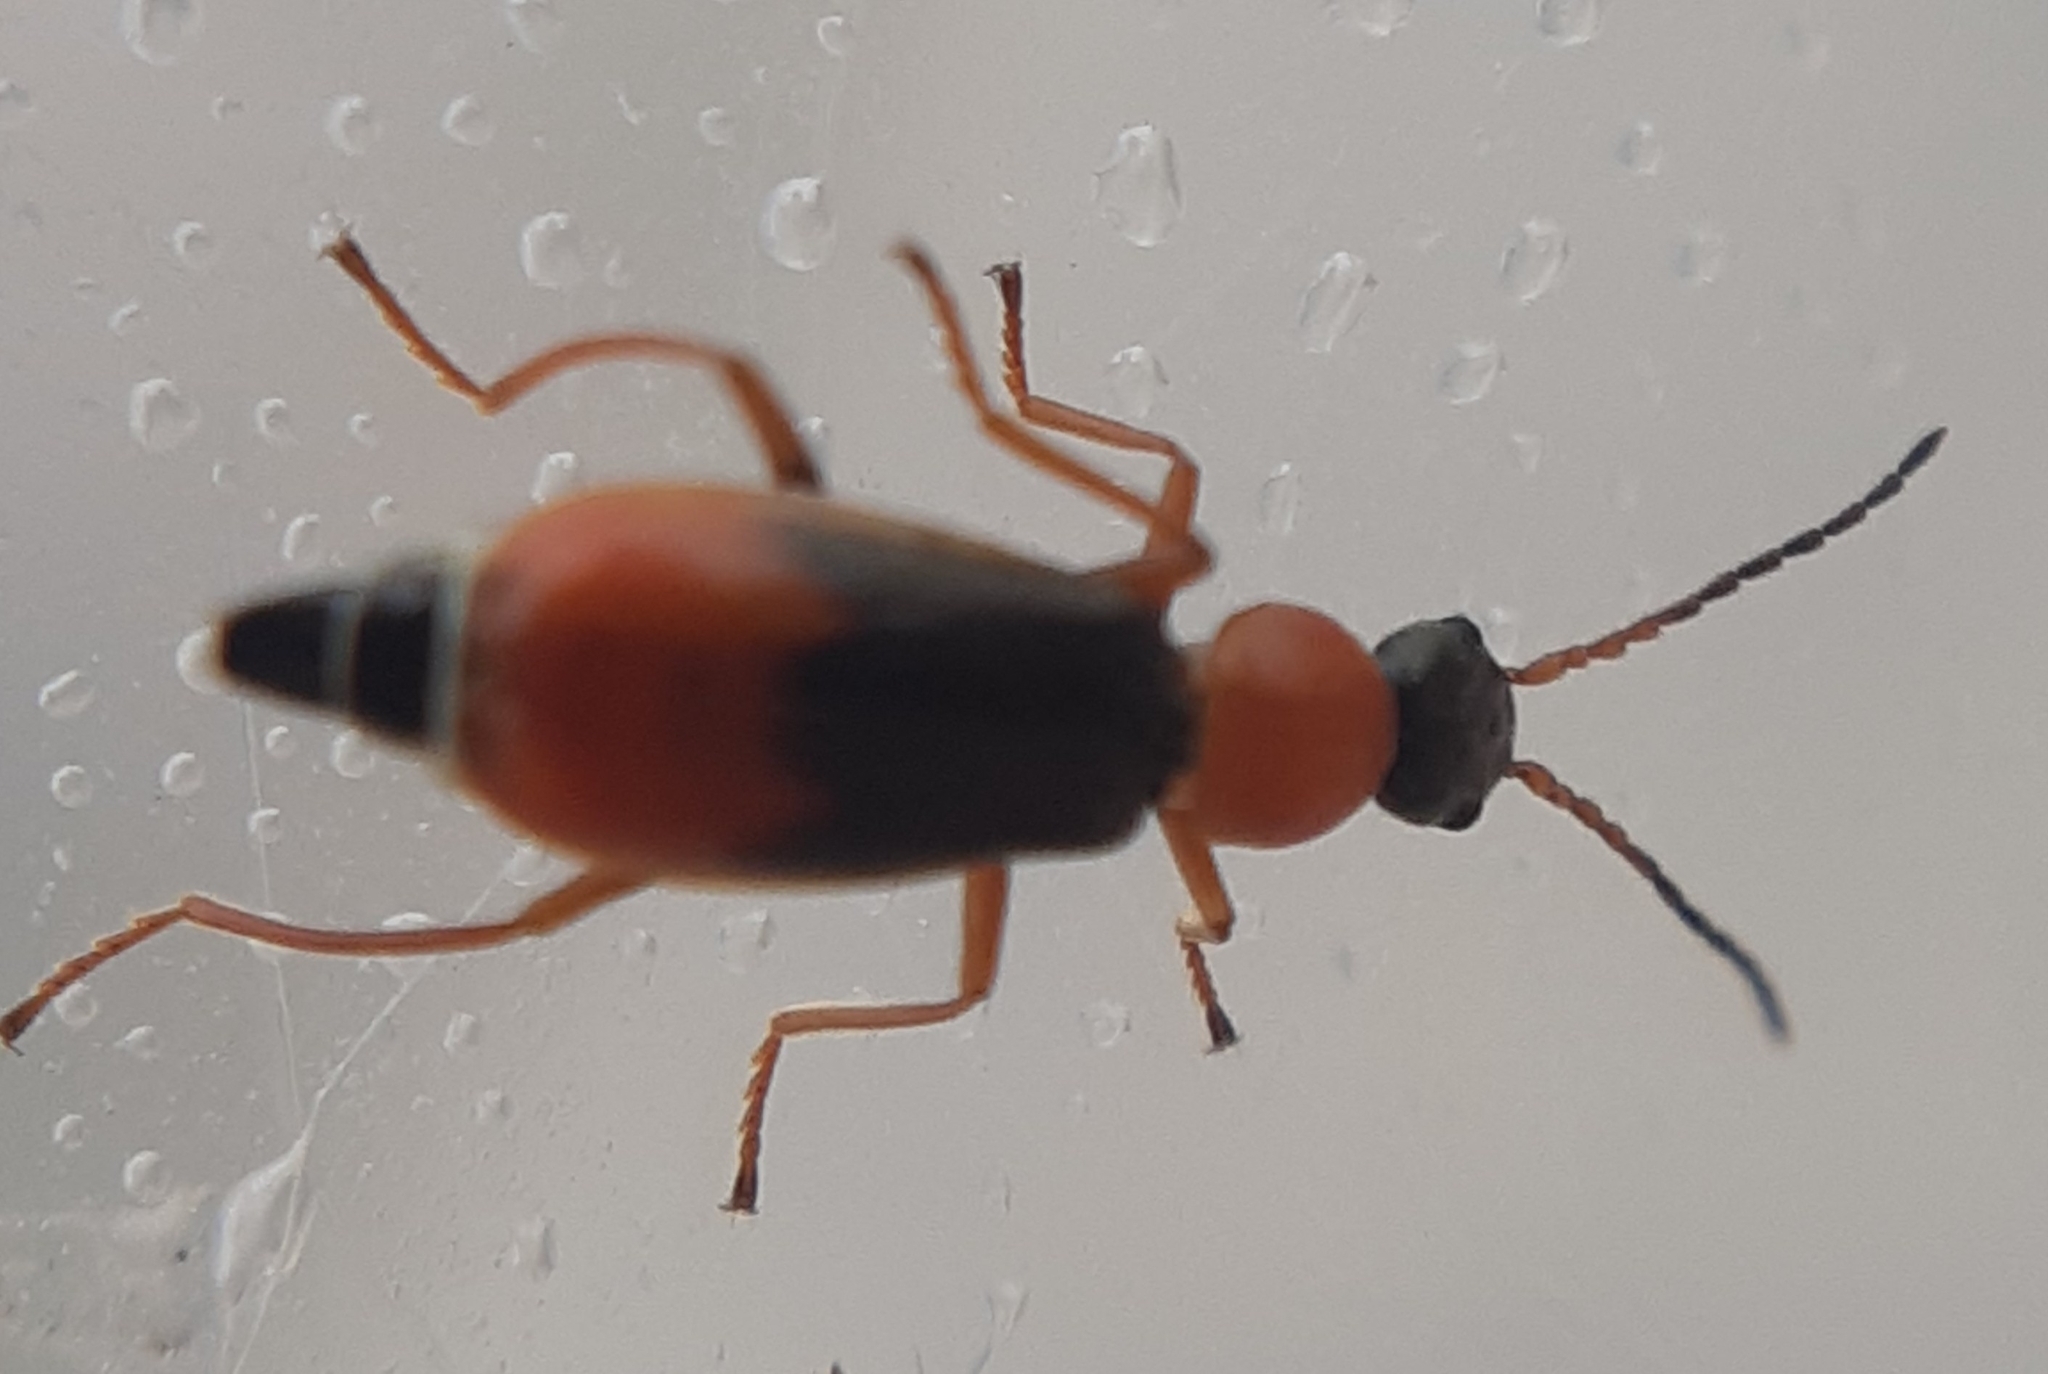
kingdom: Animalia
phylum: Arthropoda
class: Insecta
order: Coleoptera
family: Malachiidae
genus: Cerapheles
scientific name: Cerapheles terminatus
